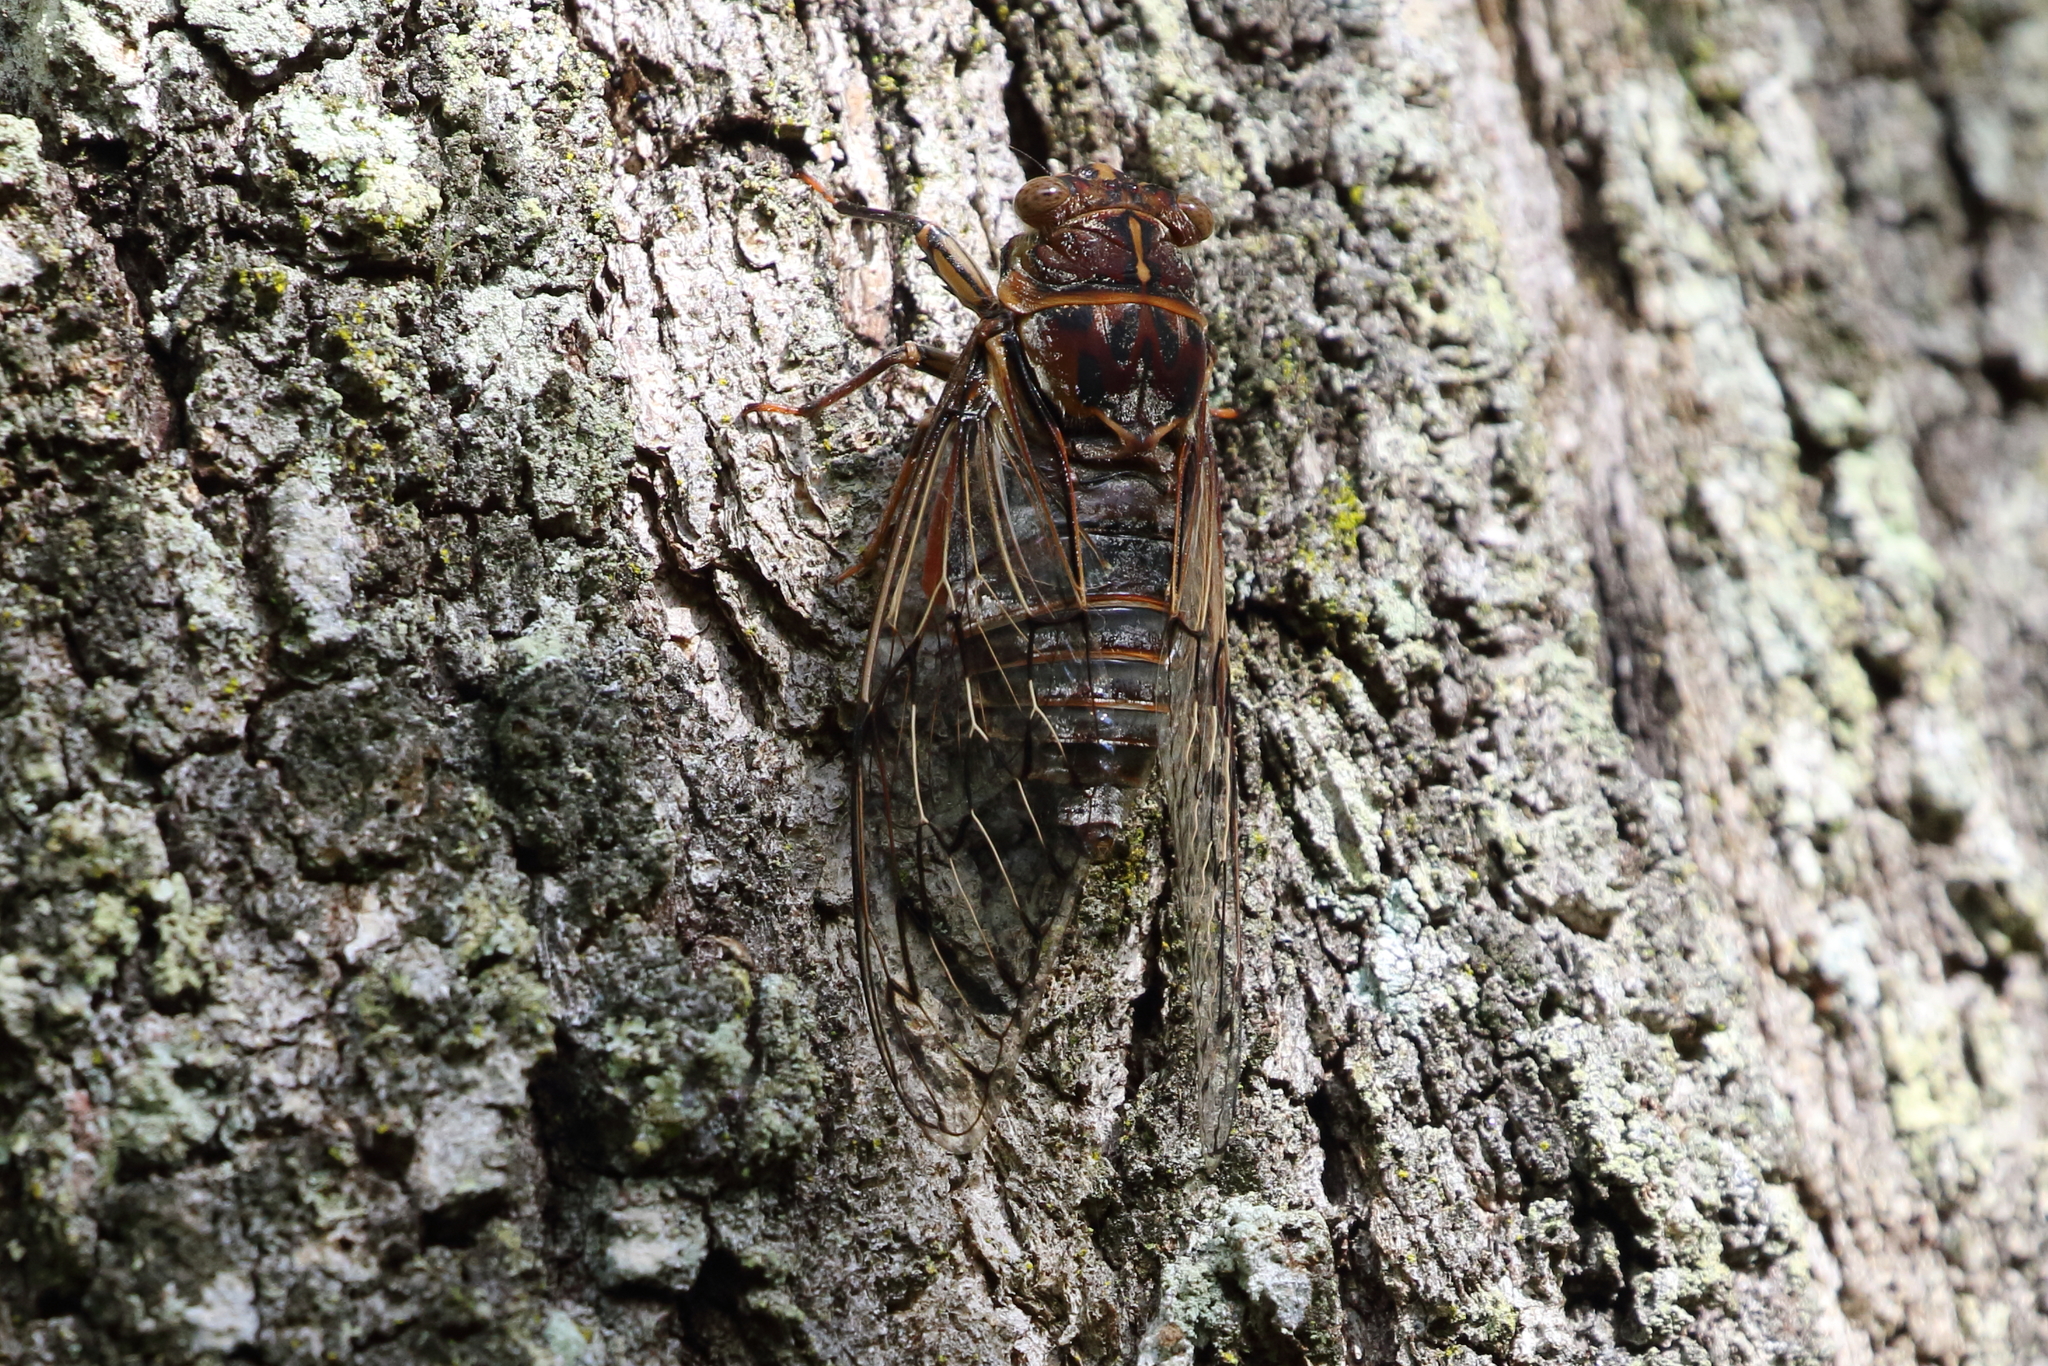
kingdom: Animalia
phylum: Arthropoda
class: Insecta
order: Hemiptera
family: Cicadidae
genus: Henicopsaltria
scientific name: Henicopsaltria eydouxii
